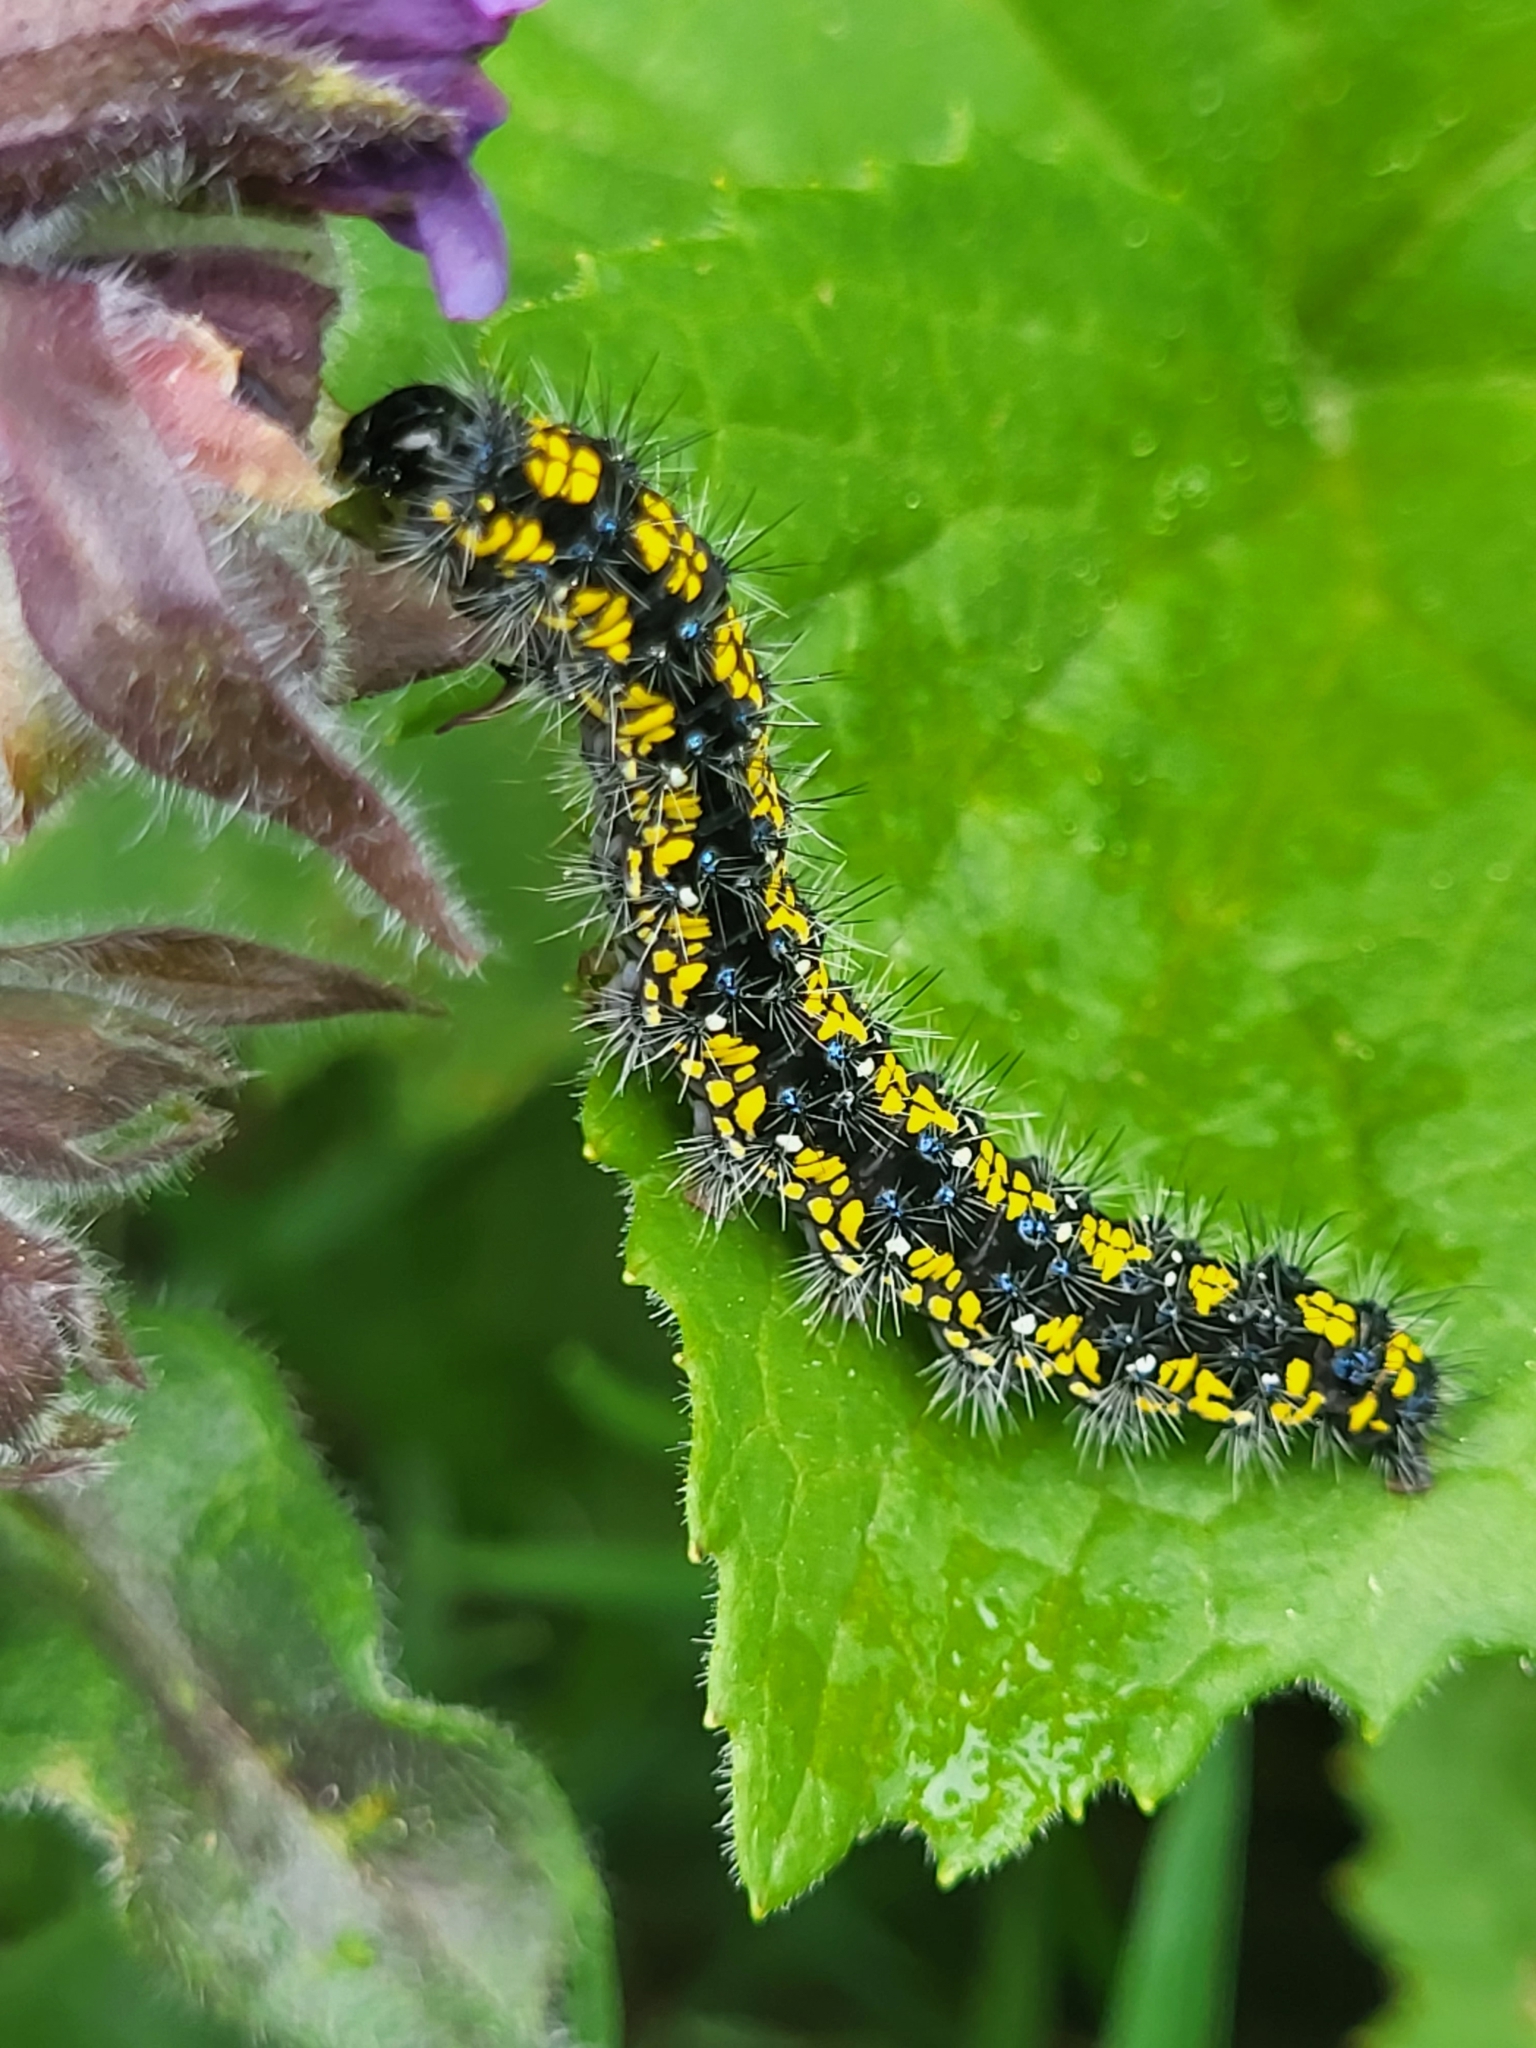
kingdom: Animalia
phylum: Arthropoda
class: Insecta
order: Lepidoptera
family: Erebidae
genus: Callimorpha
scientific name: Callimorpha dominula
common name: Scarlet tiger
